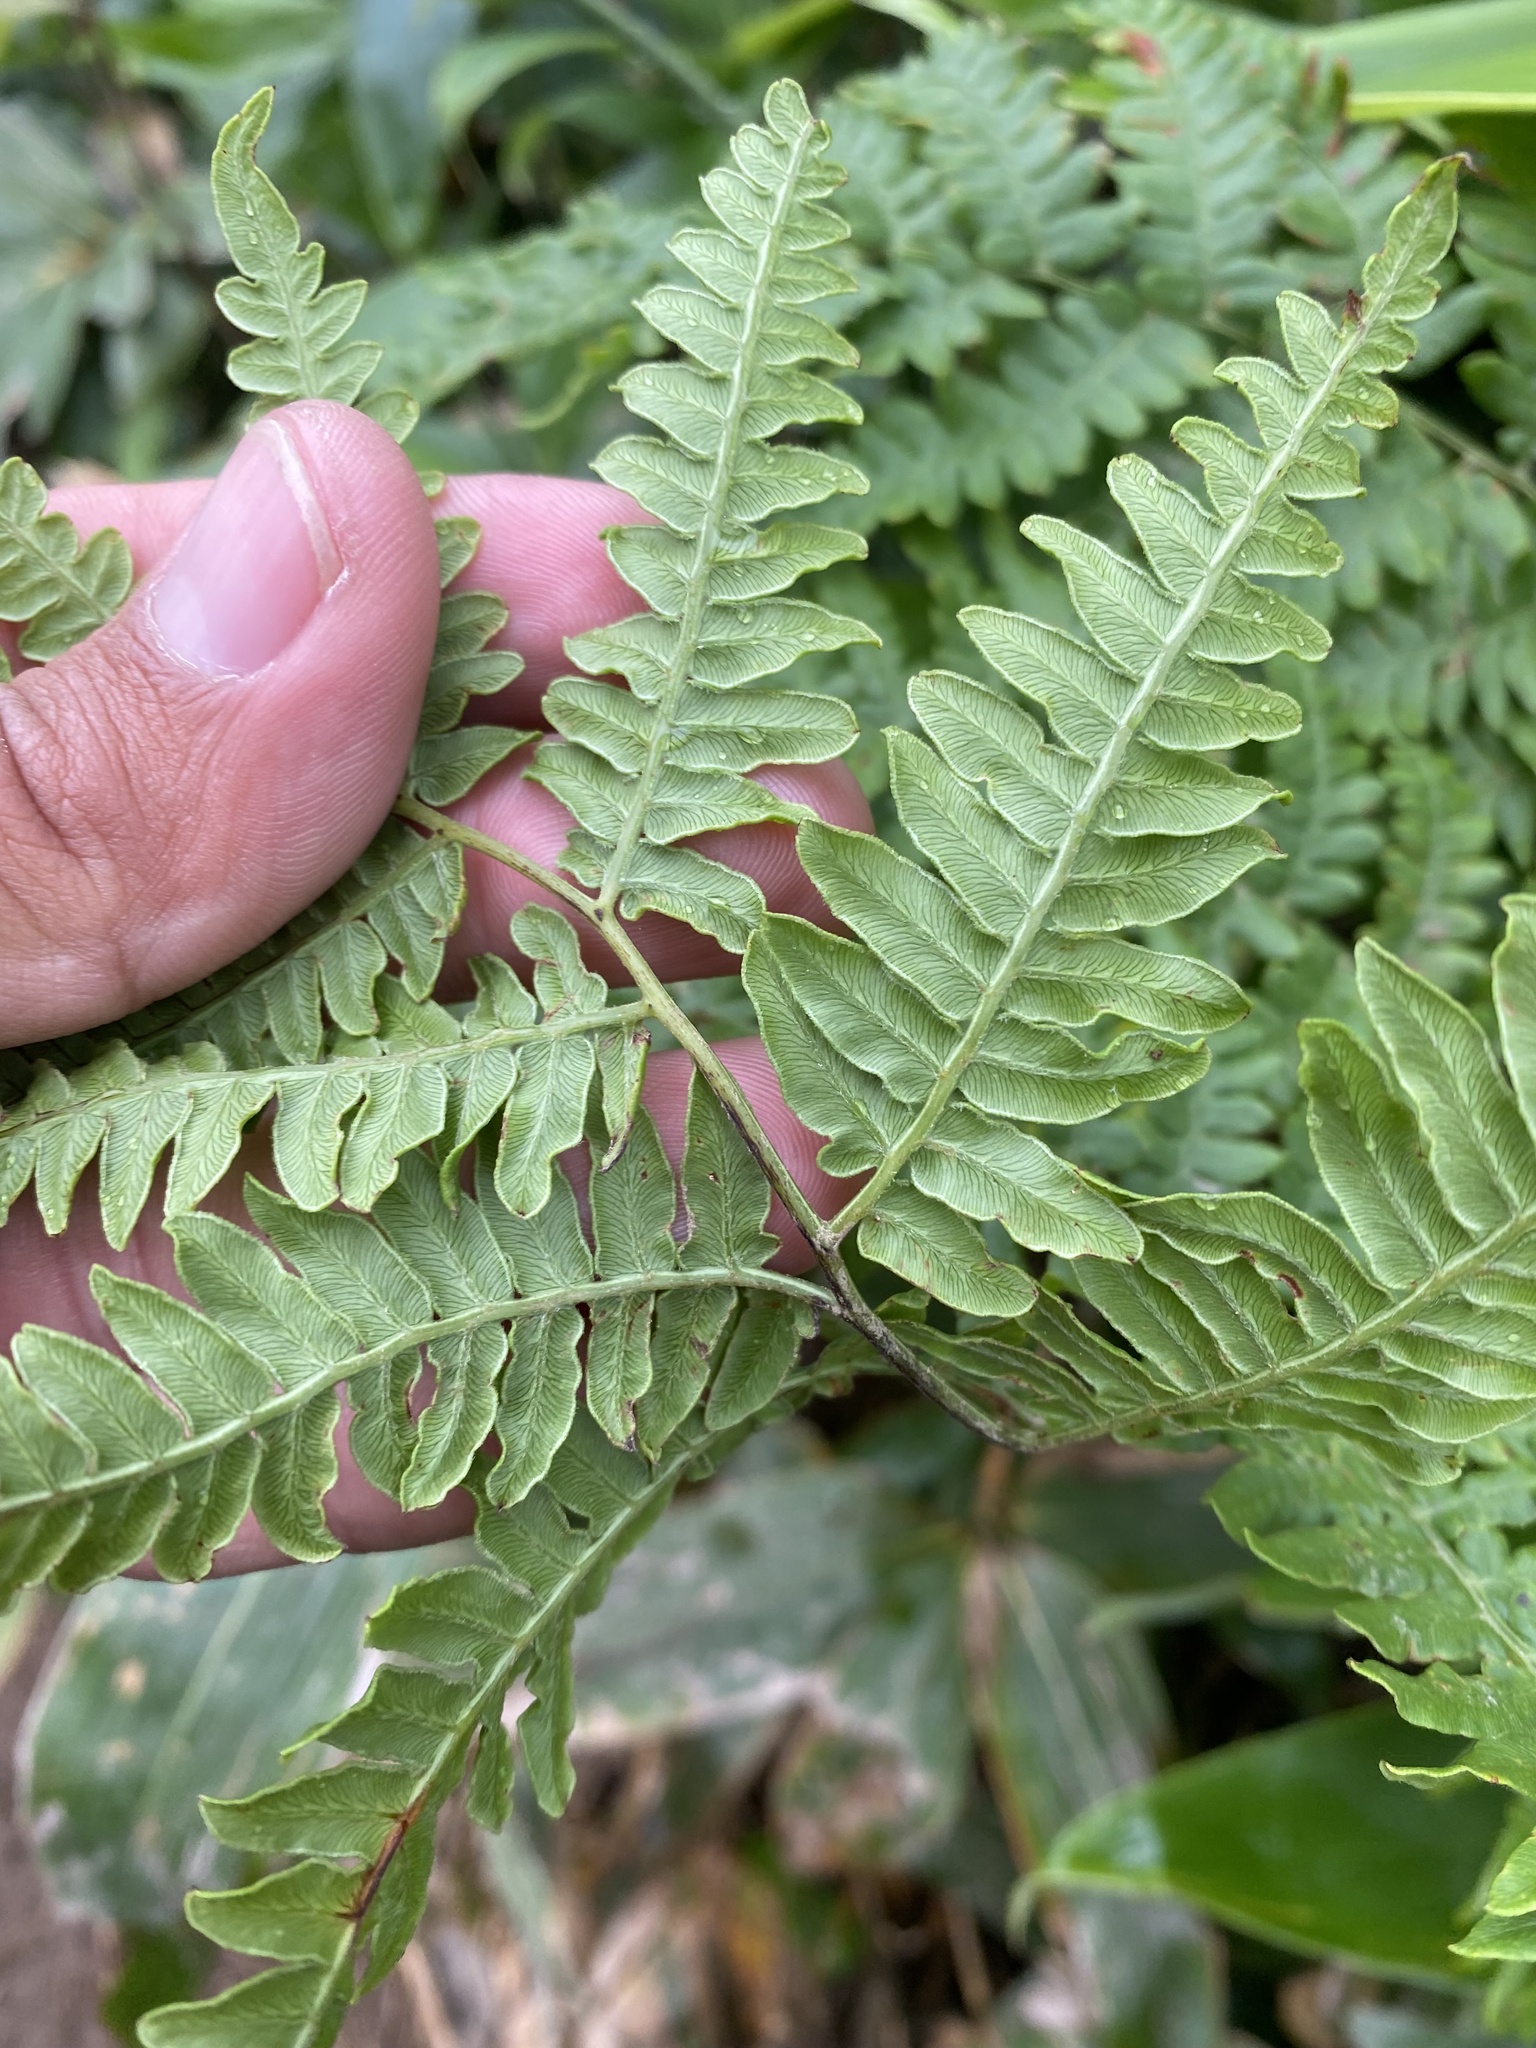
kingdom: Plantae
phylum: Tracheophyta
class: Polypodiopsida
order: Polypodiales
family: Dennstaedtiaceae
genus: Pteridium
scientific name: Pteridium aquilinum
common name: Bracken
